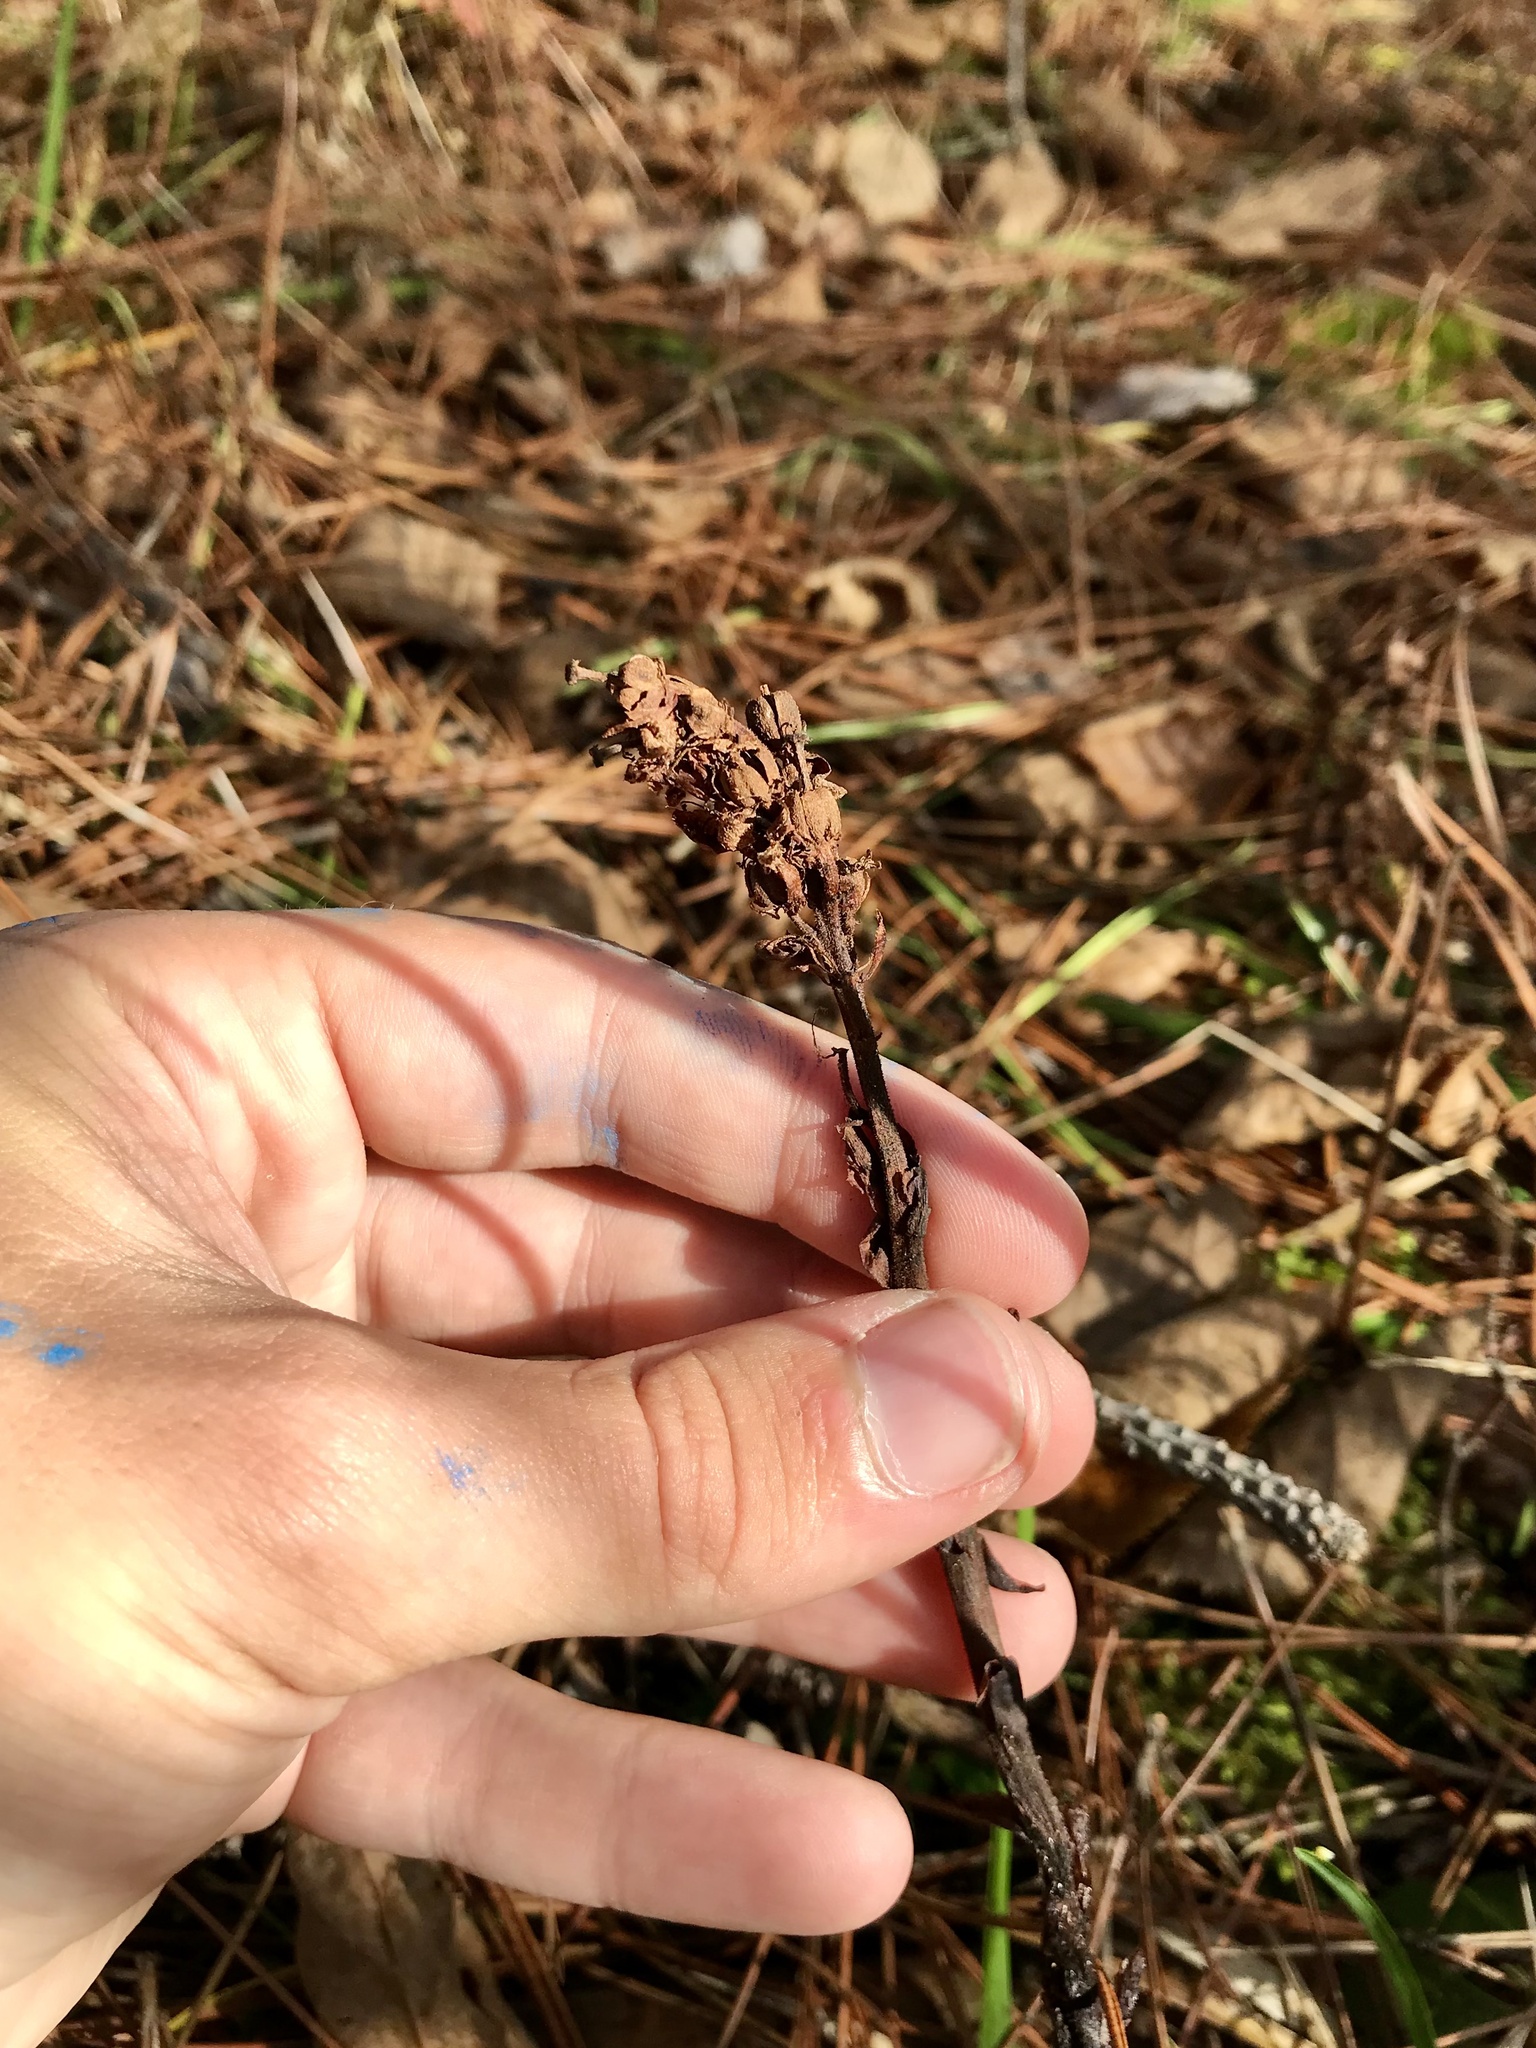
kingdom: Plantae
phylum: Tracheophyta
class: Magnoliopsida
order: Ericales
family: Ericaceae
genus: Hypopitys
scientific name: Hypopitys monotropa
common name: Yellow bird's-nest
